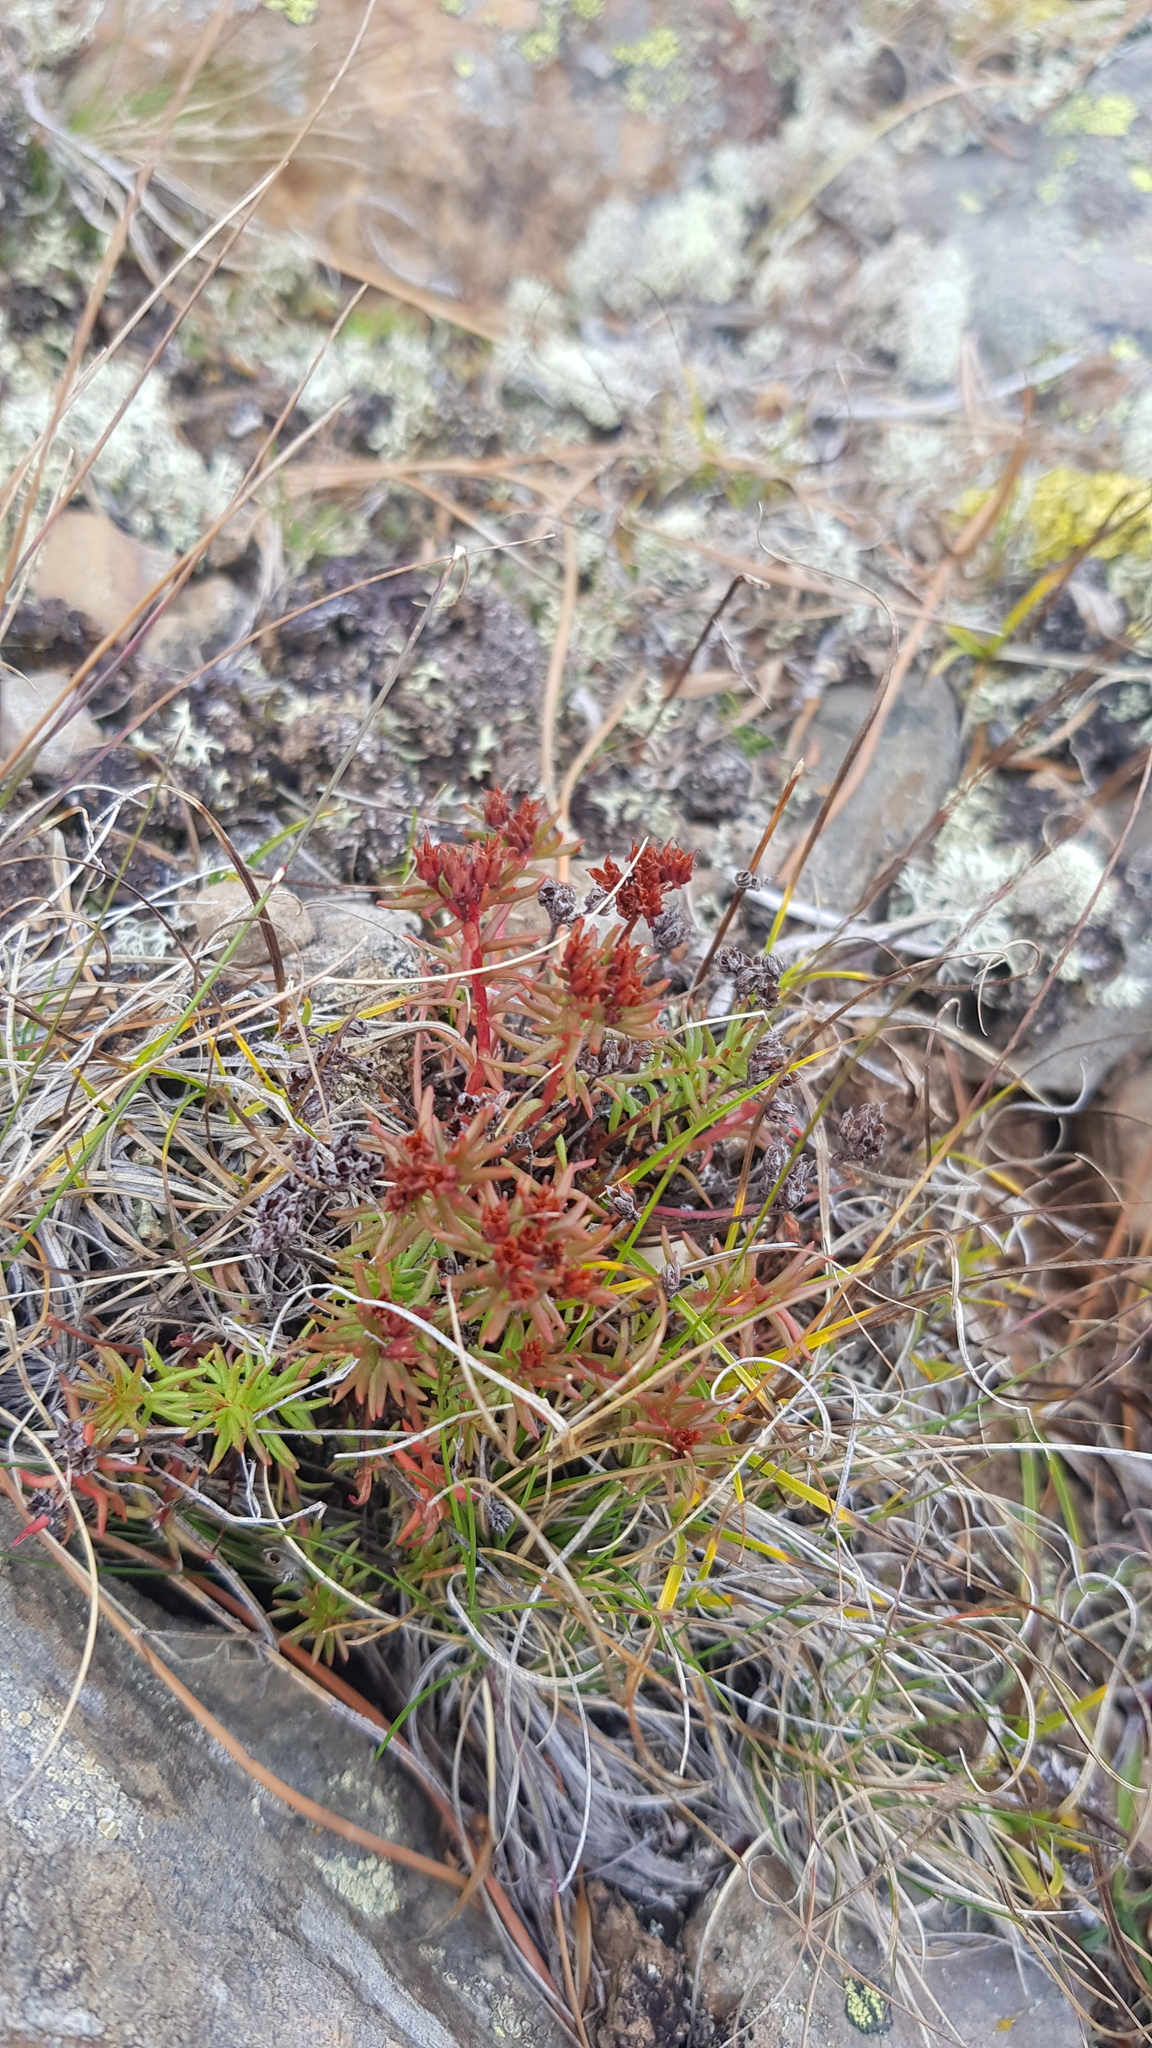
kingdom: Plantae
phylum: Tracheophyta
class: Magnoliopsida
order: Saxifragales
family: Crassulaceae
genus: Rhodiola
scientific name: Rhodiola quadrifida
